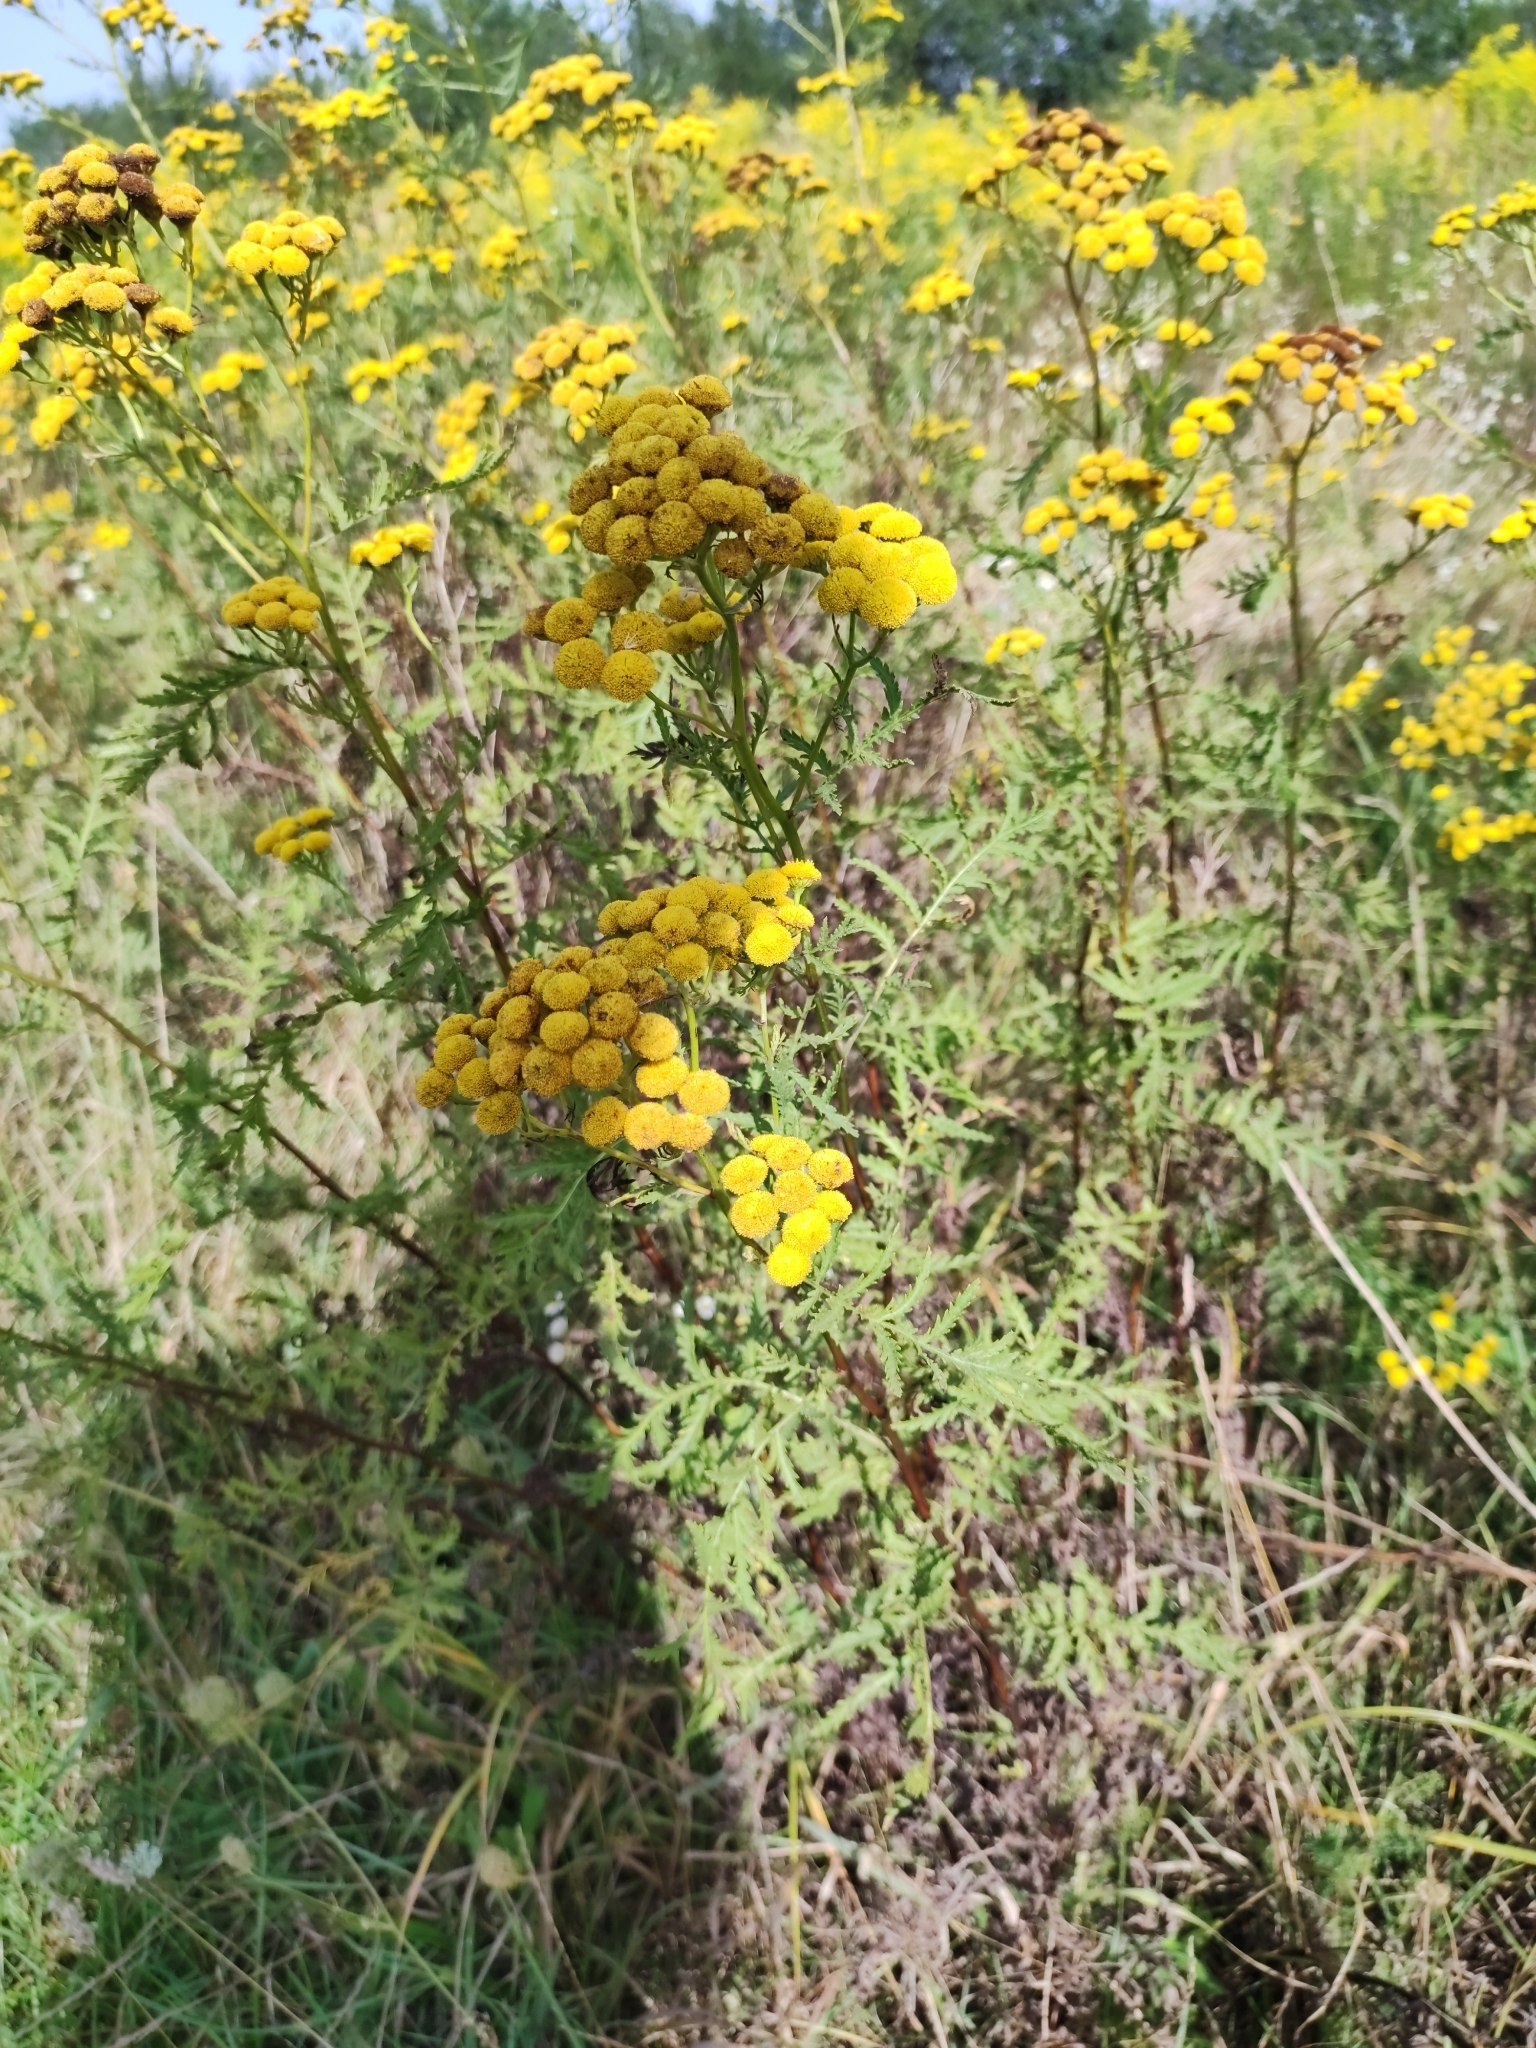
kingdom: Plantae
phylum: Tracheophyta
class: Magnoliopsida
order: Asterales
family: Asteraceae
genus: Tanacetum
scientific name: Tanacetum vulgare
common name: Common tansy
